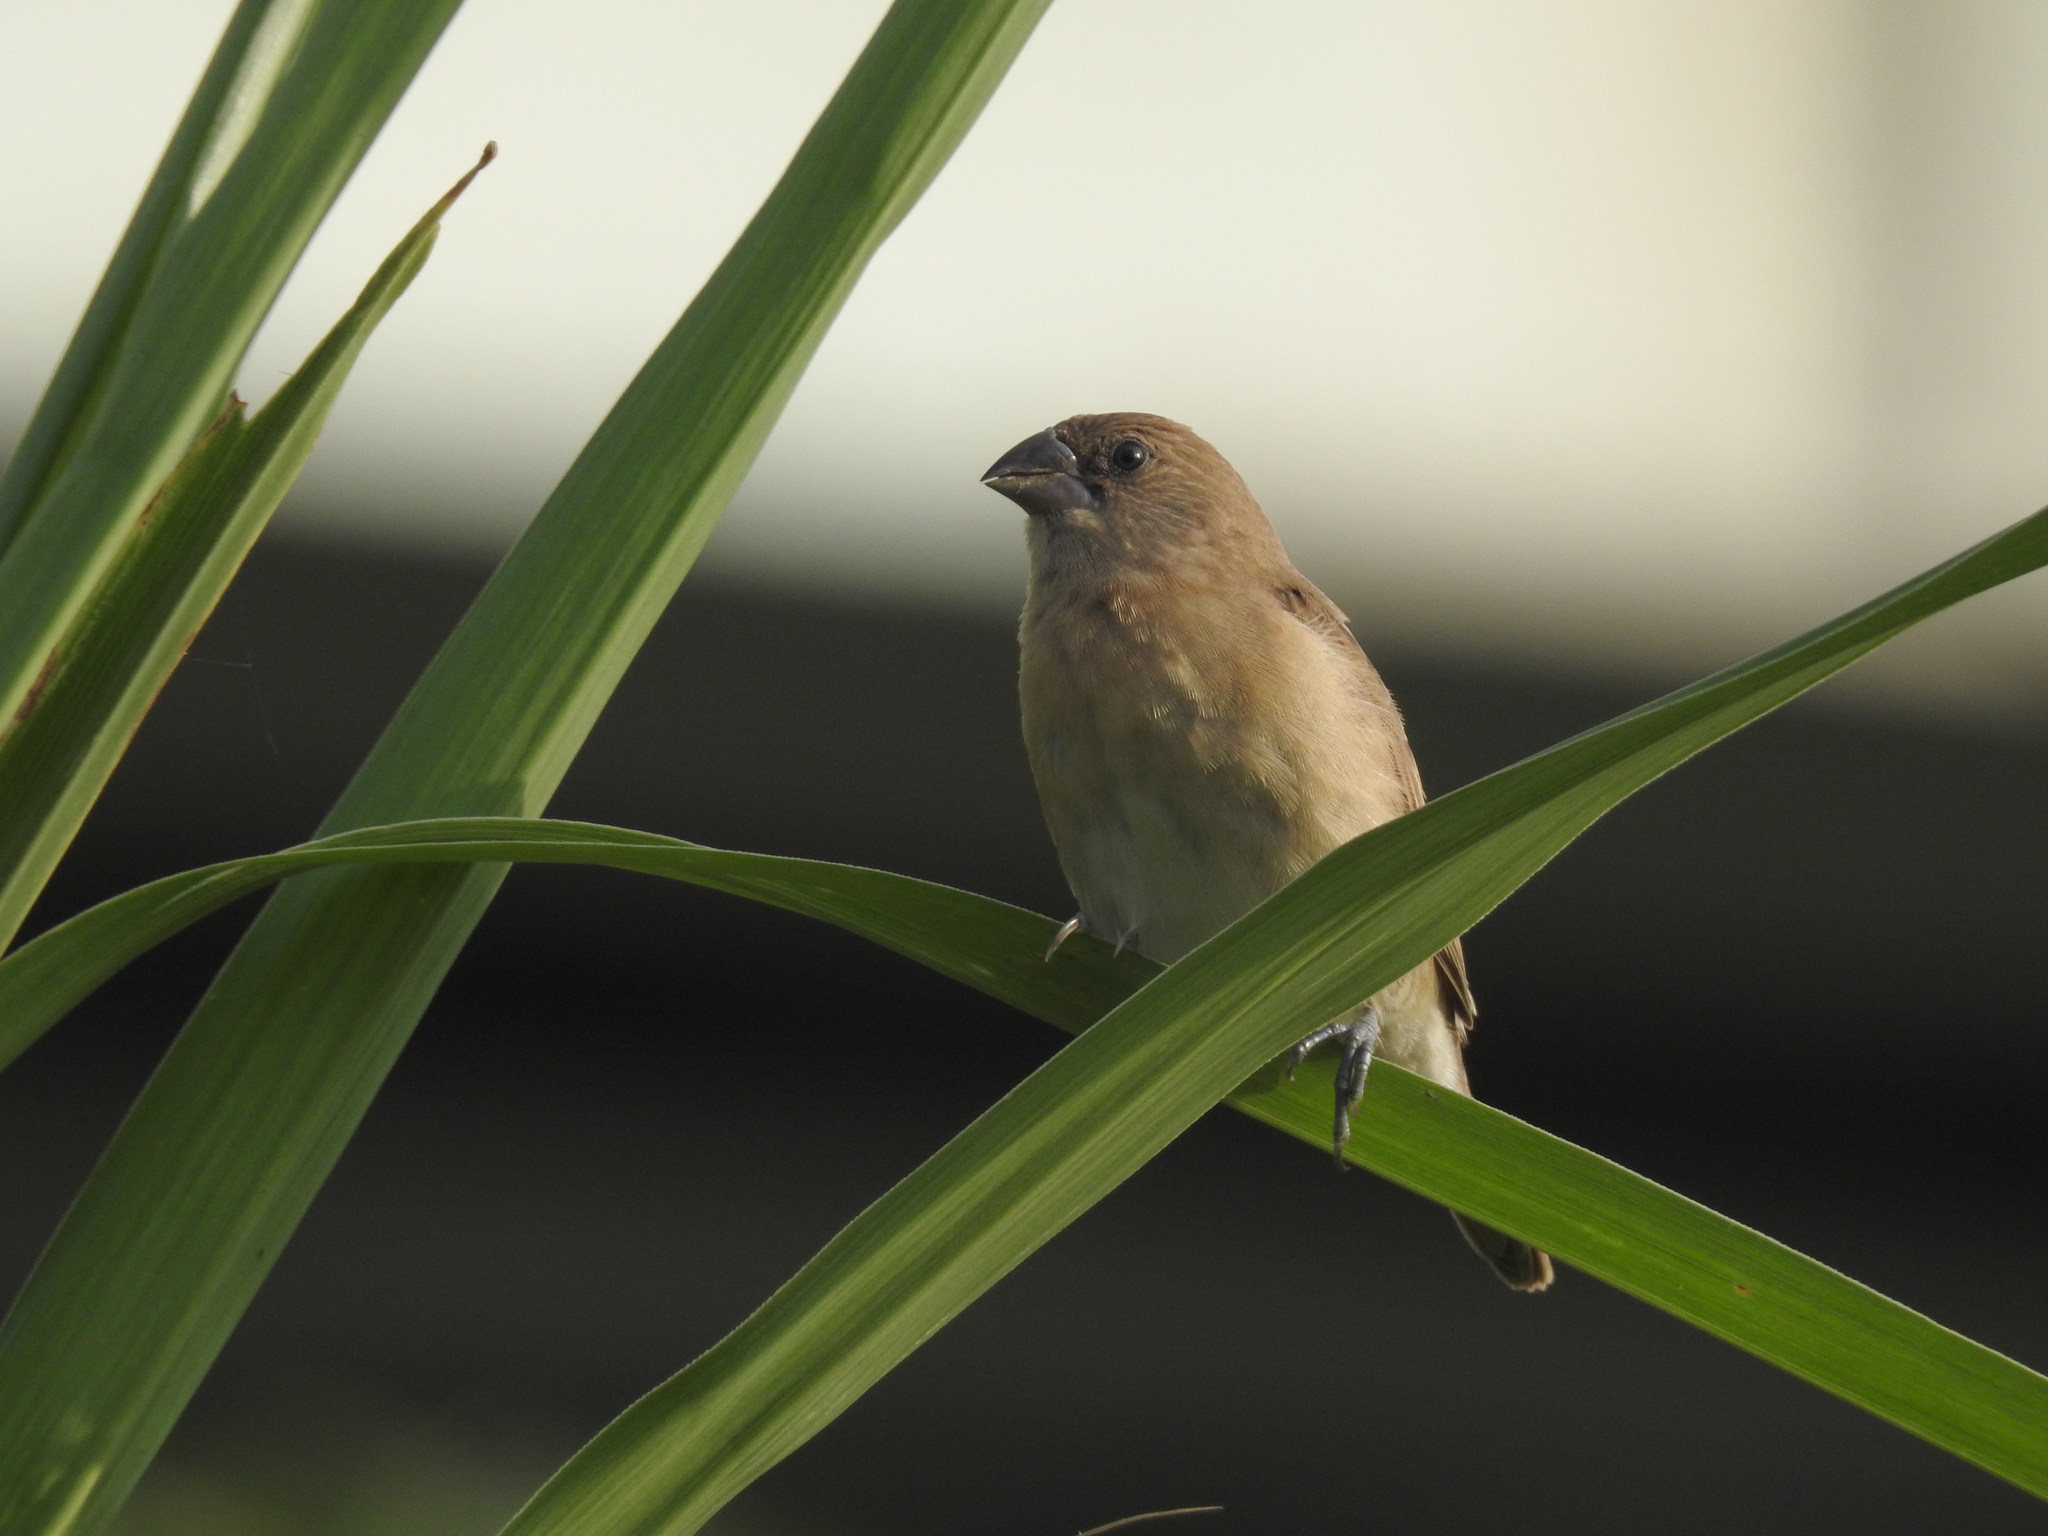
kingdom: Animalia
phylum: Chordata
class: Aves
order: Passeriformes
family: Estrildidae
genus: Lonchura
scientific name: Lonchura punctulata
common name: Scaly-breasted munia
